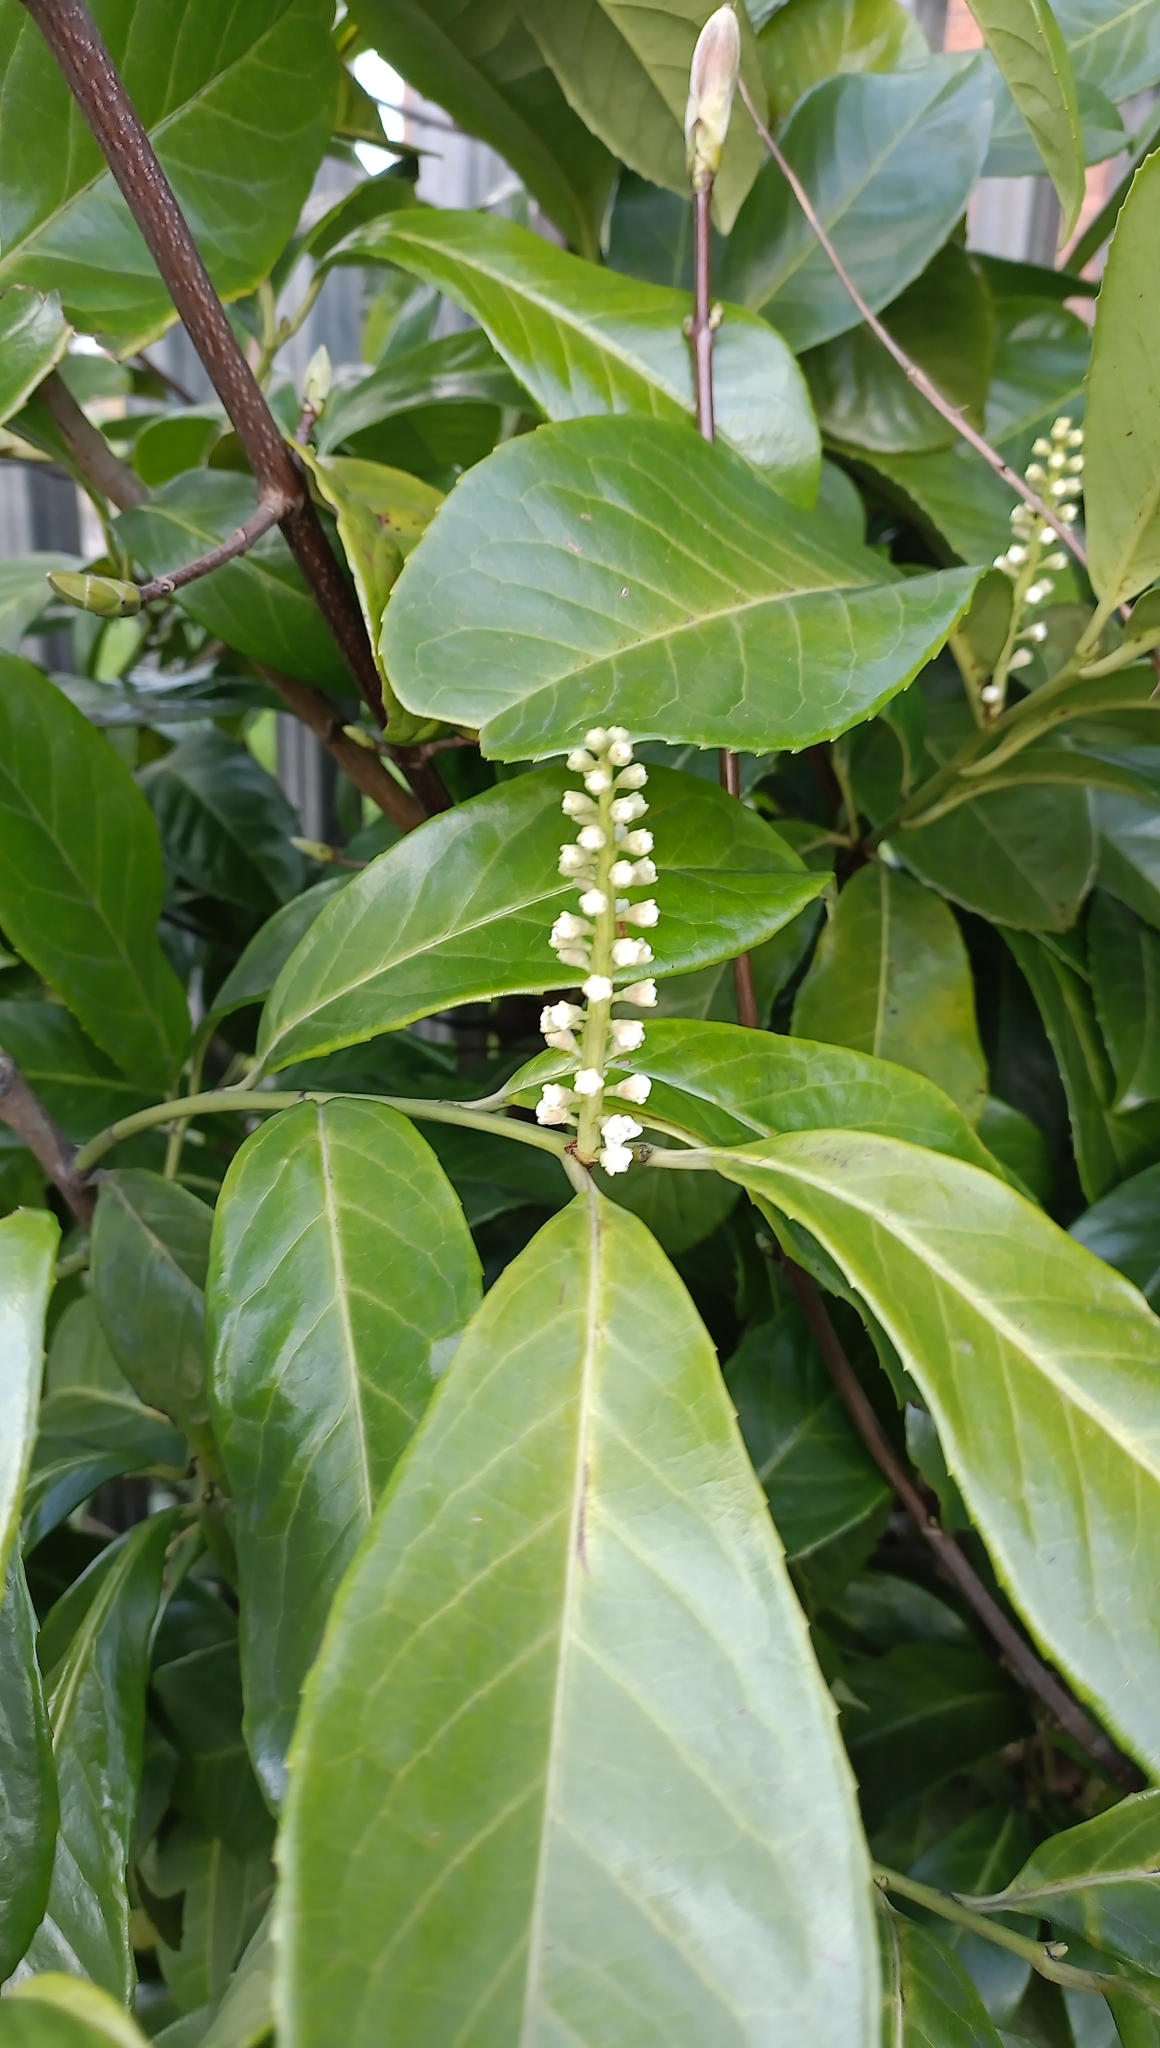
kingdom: Plantae
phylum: Tracheophyta
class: Magnoliopsida
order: Rosales
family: Rosaceae
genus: Prunus
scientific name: Prunus laurocerasus
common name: Cherry laurel
